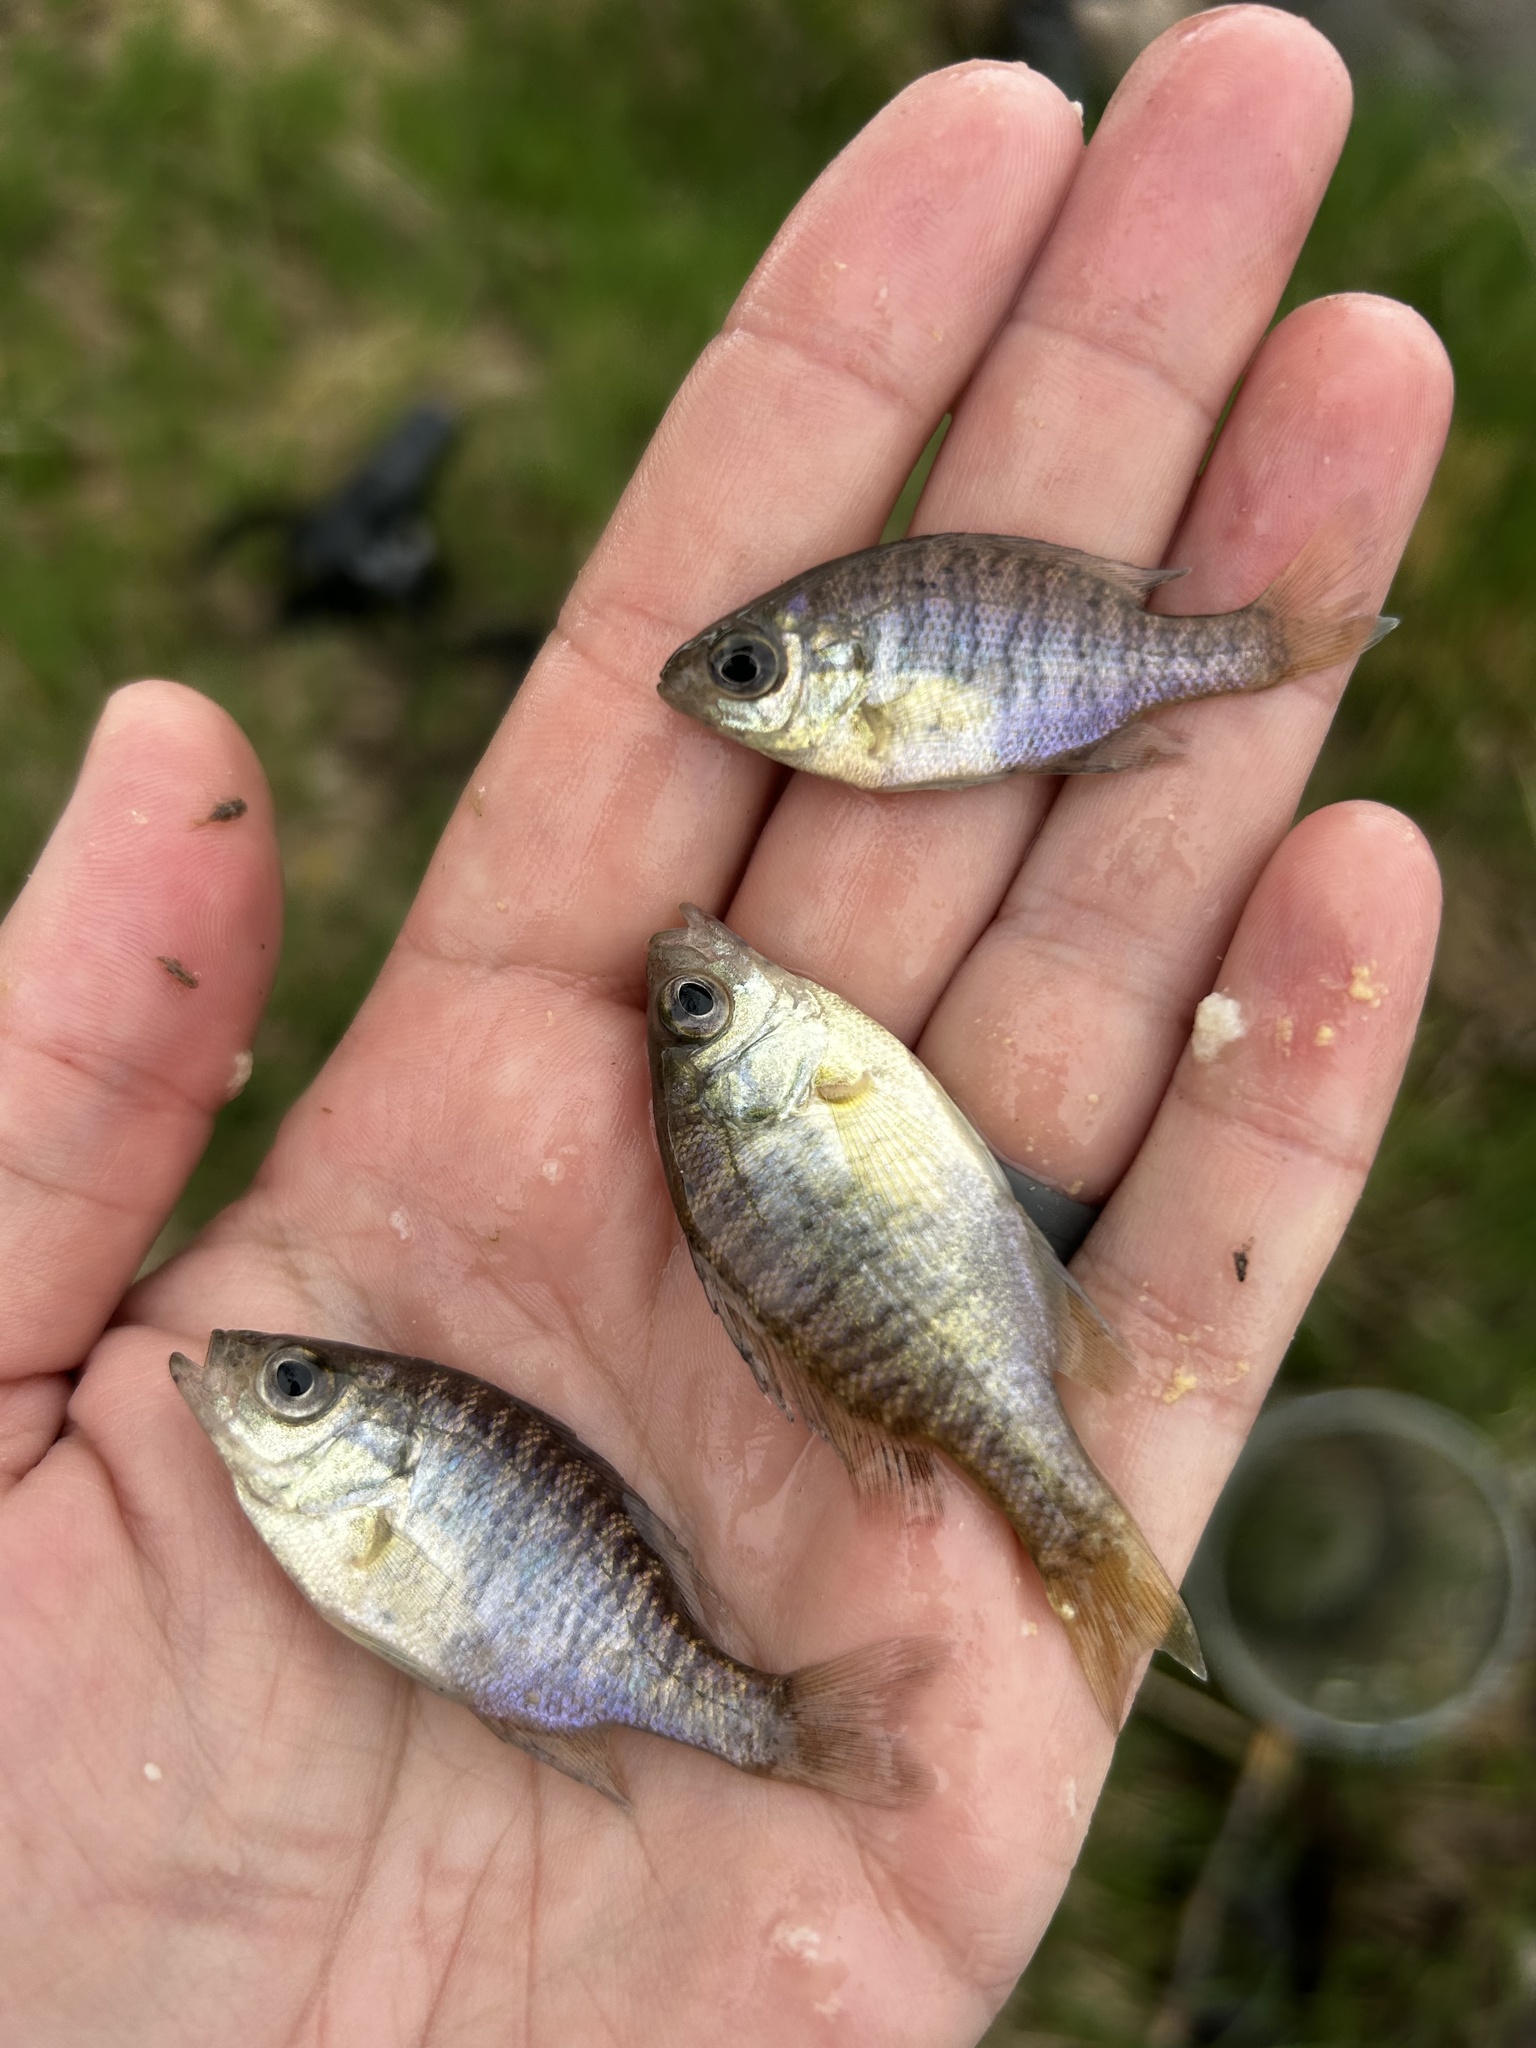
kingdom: Animalia
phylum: Chordata
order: Perciformes
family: Centrarchidae
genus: Lepomis
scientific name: Lepomis macrochirus
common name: Bluegill
